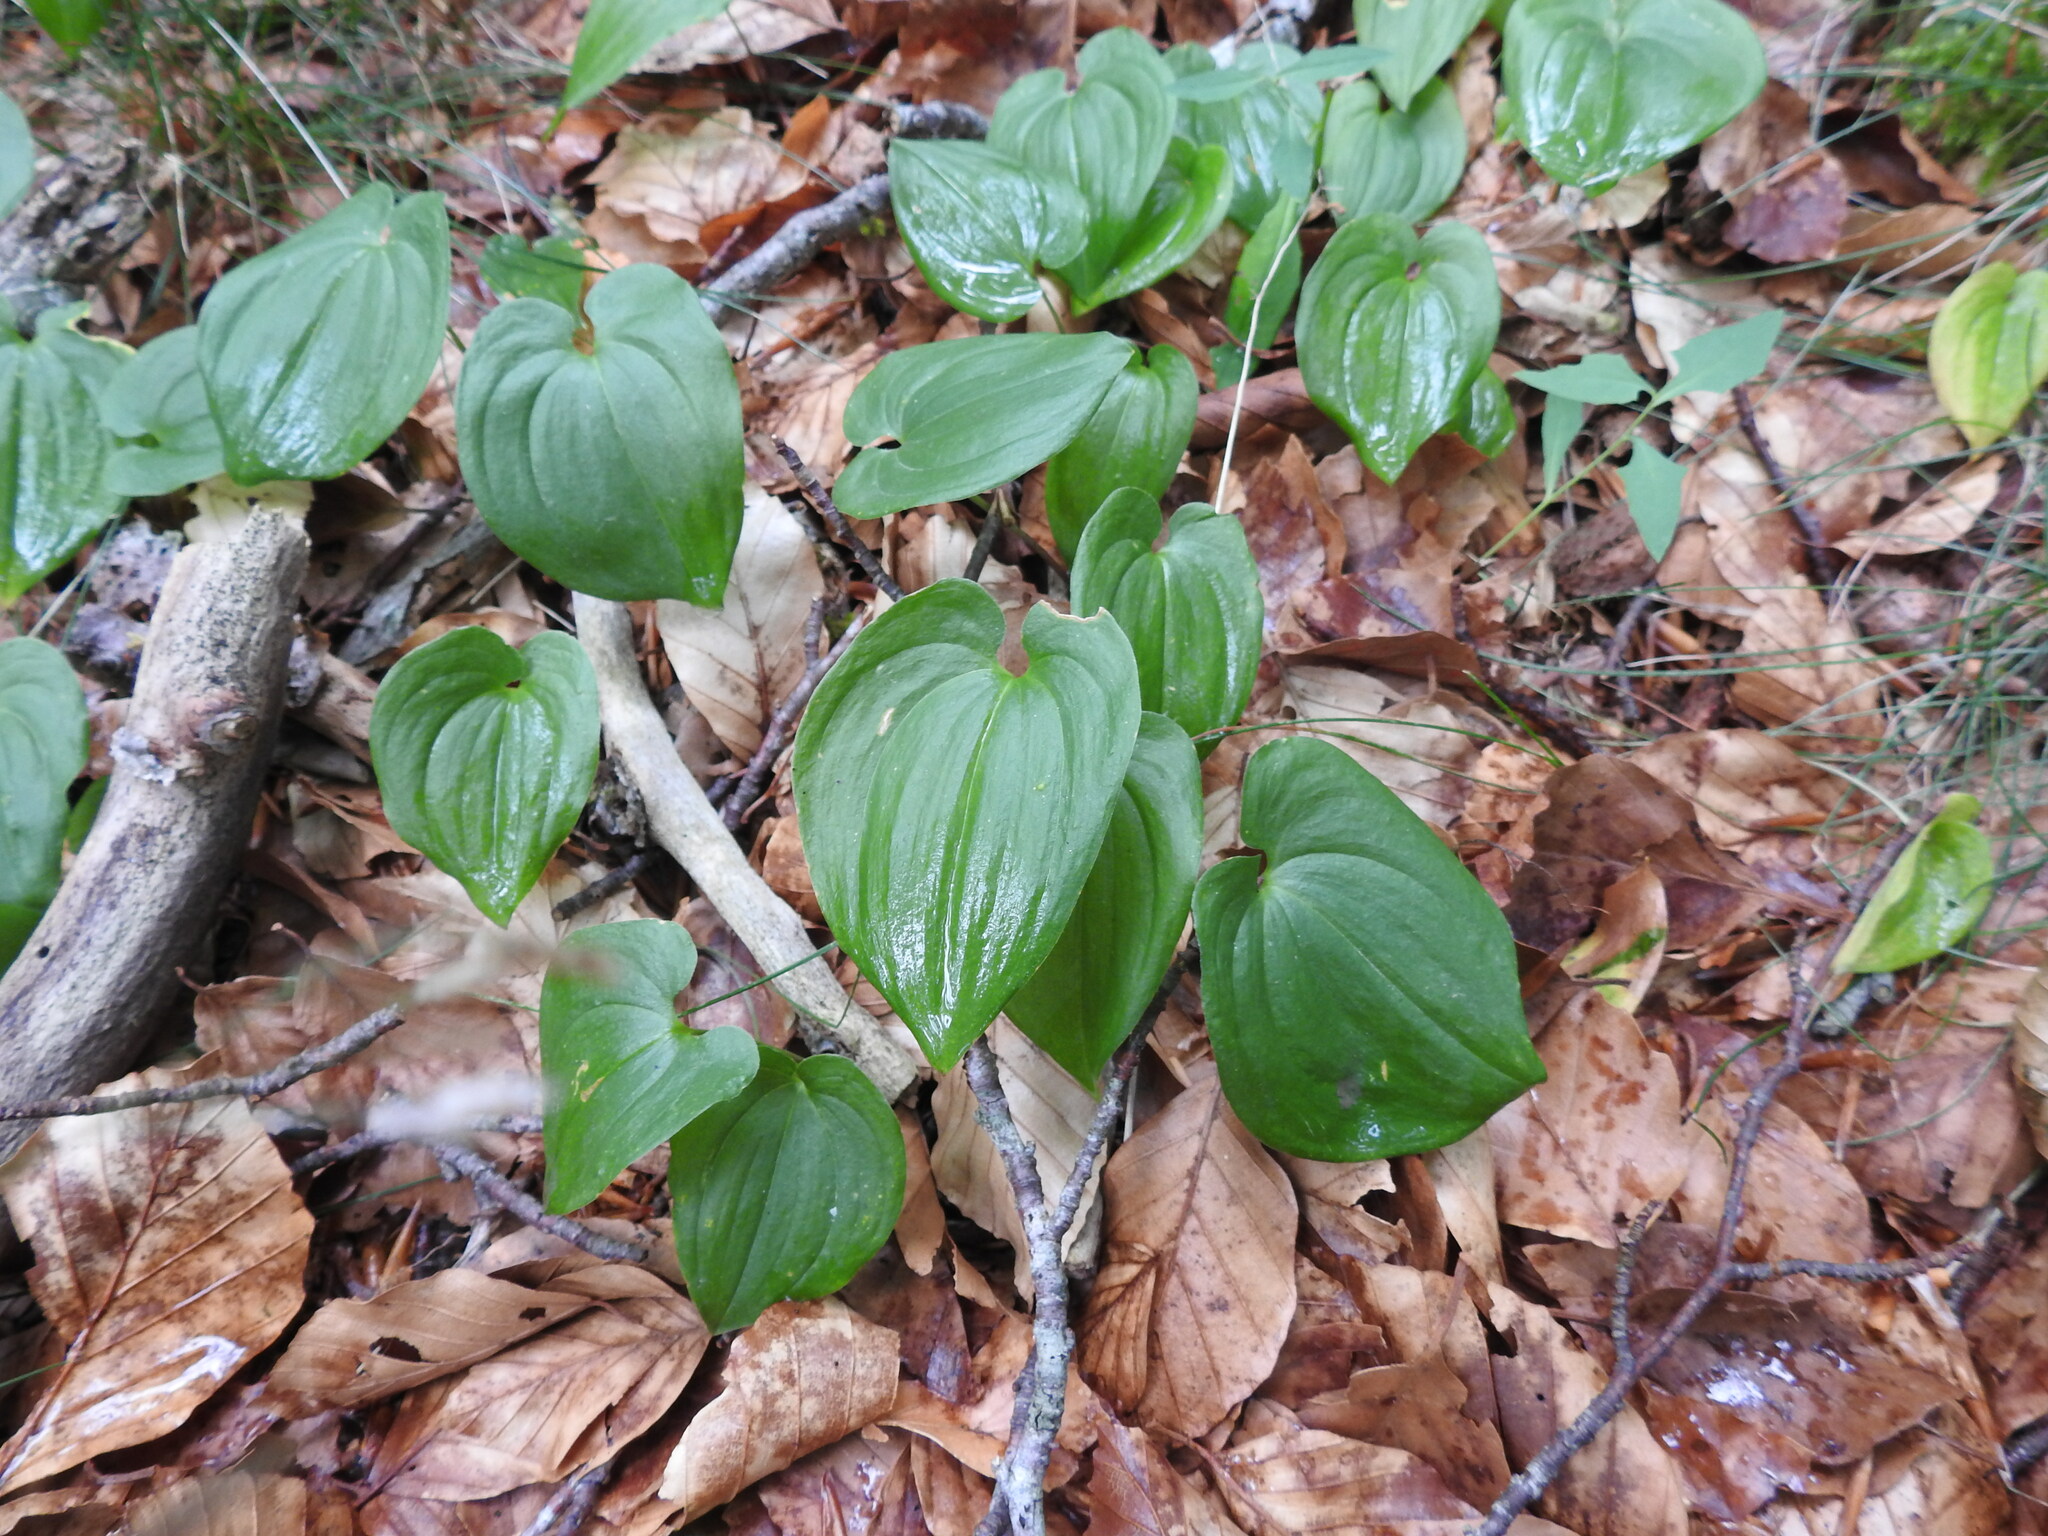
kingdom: Plantae
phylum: Tracheophyta
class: Liliopsida
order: Asparagales
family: Asparagaceae
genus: Maianthemum
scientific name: Maianthemum bifolium
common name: May lily
